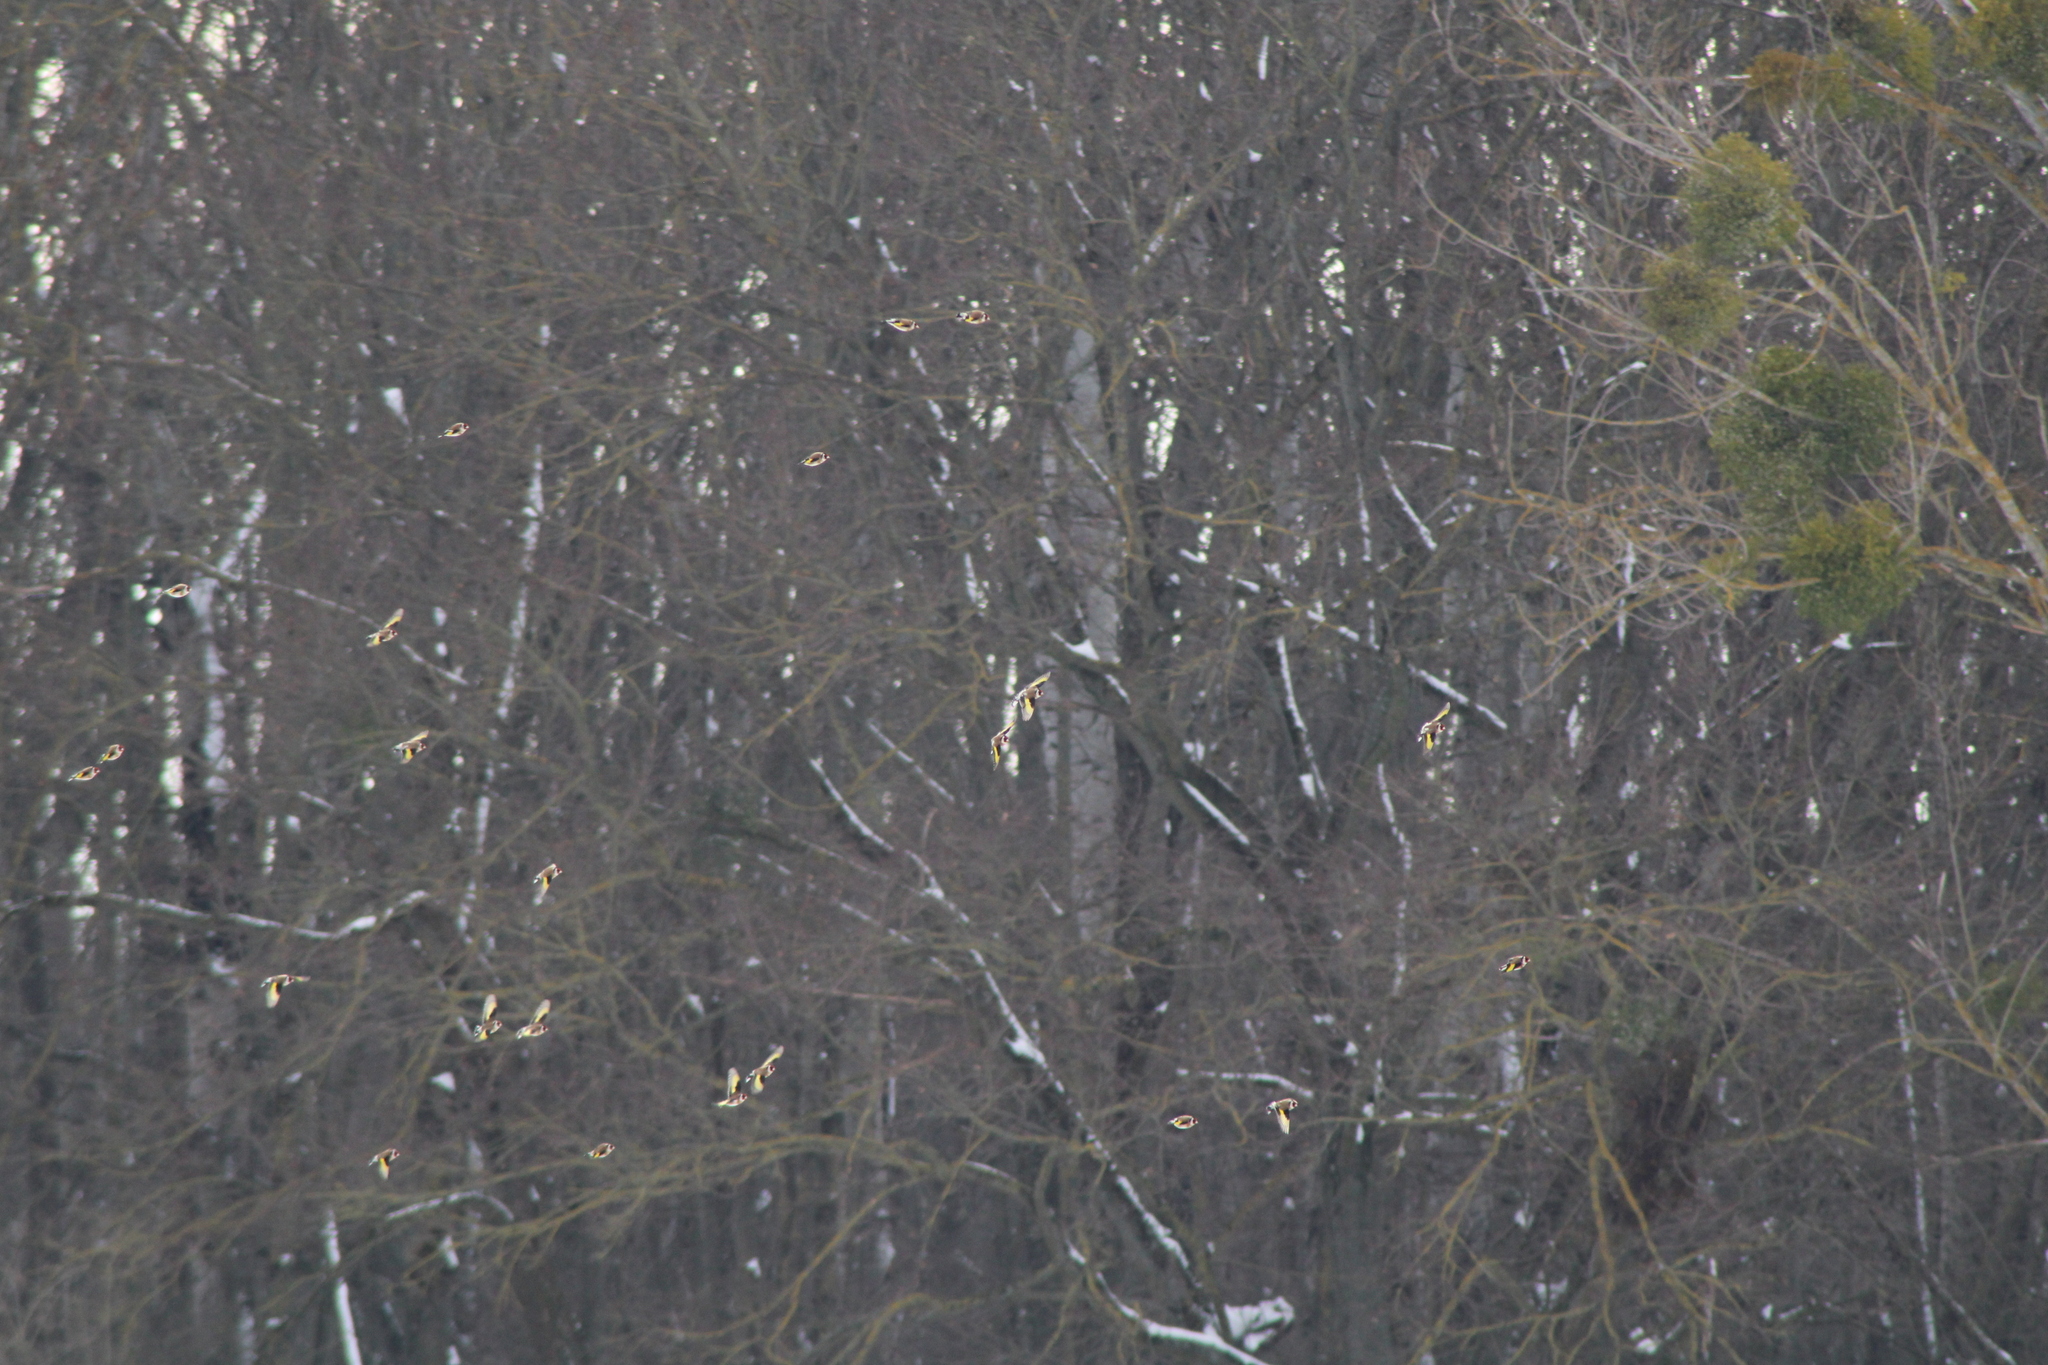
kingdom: Animalia
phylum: Chordata
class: Aves
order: Passeriformes
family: Fringillidae
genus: Carduelis
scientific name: Carduelis carduelis
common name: European goldfinch
